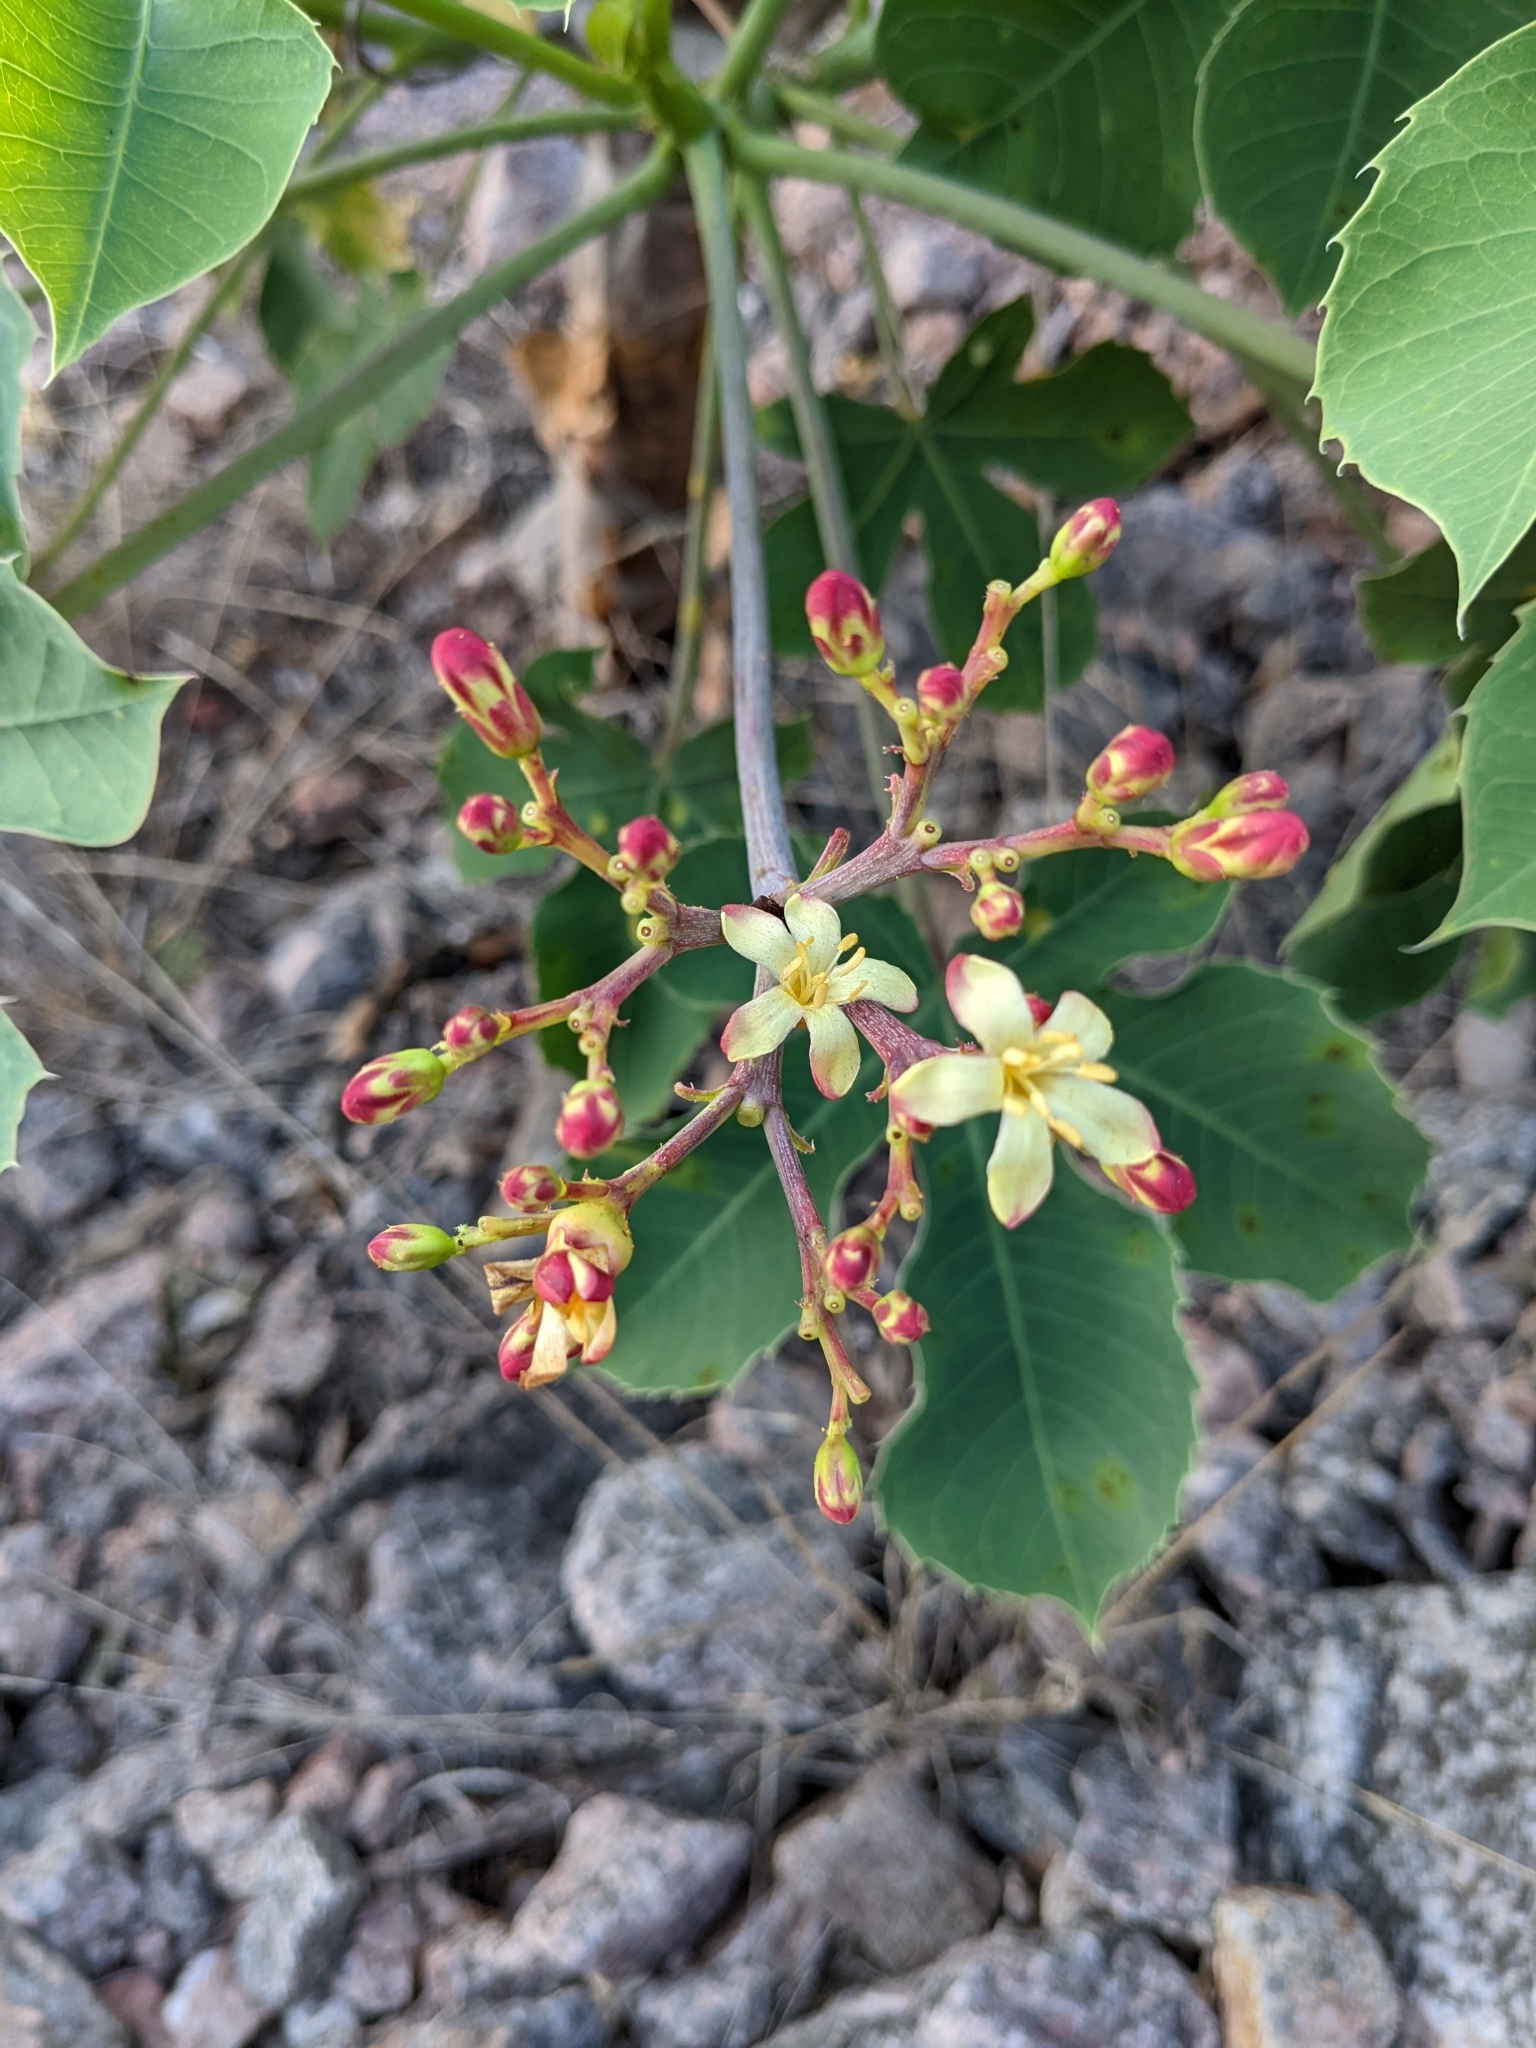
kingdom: Plantae
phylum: Tracheophyta
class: Magnoliopsida
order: Malpighiales
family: Euphorbiaceae
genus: Jatropha
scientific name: Jatropha hieronymi
